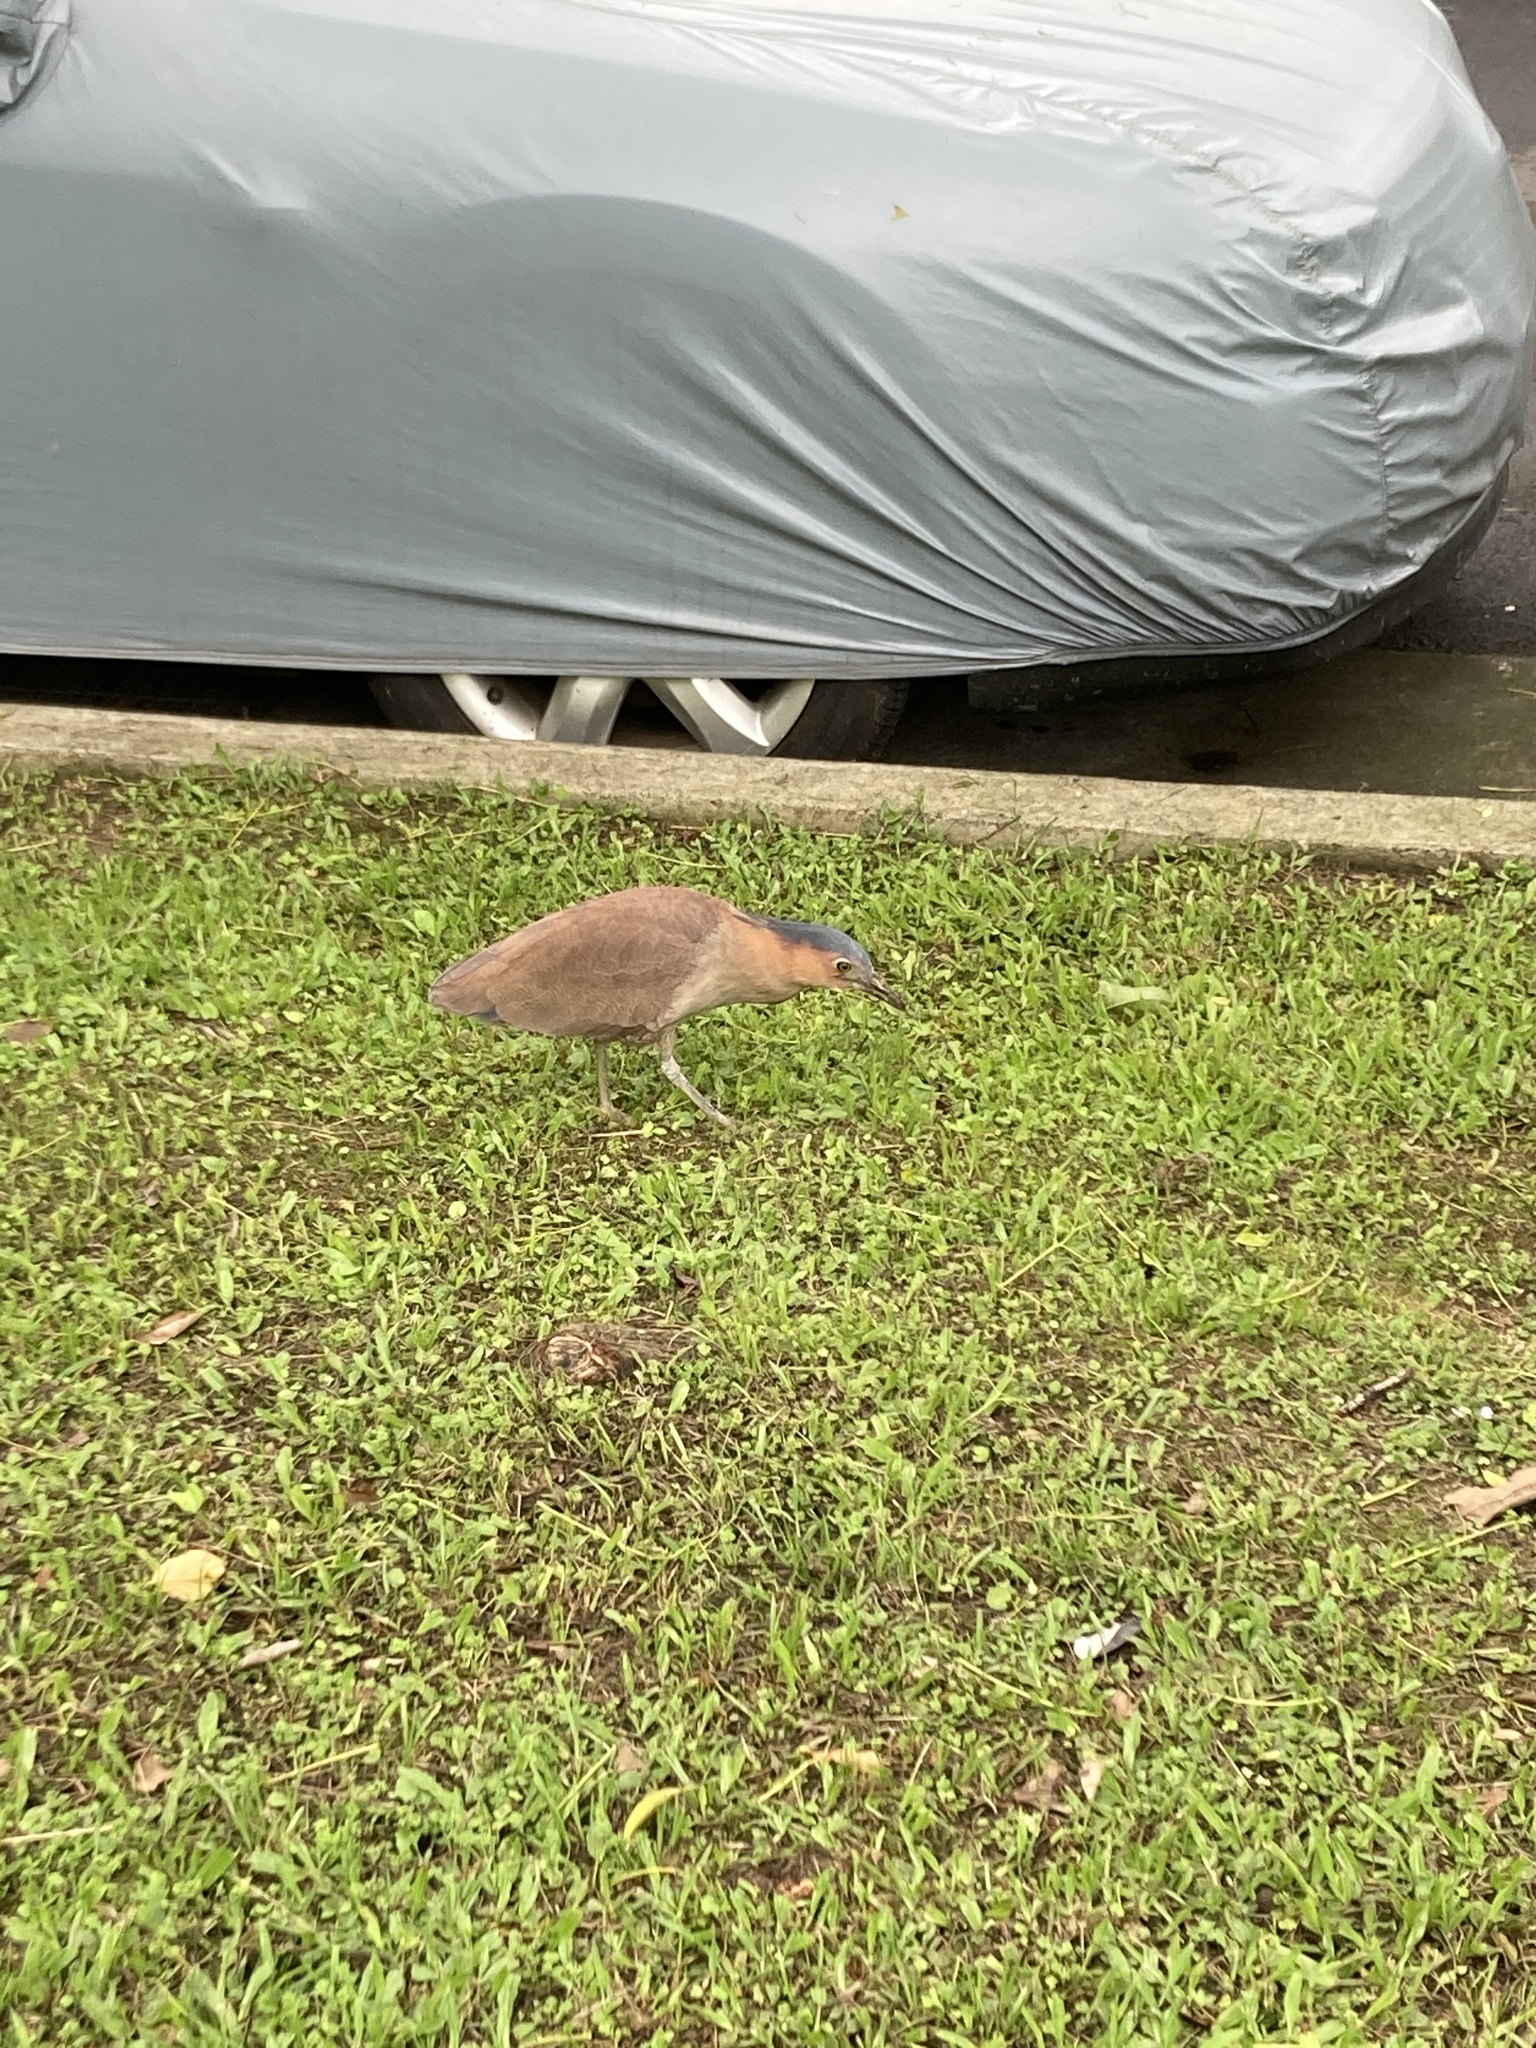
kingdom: Animalia
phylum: Chordata
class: Aves
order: Pelecaniformes
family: Ardeidae
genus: Gorsachius
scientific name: Gorsachius melanolophus
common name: Malayan night heron
